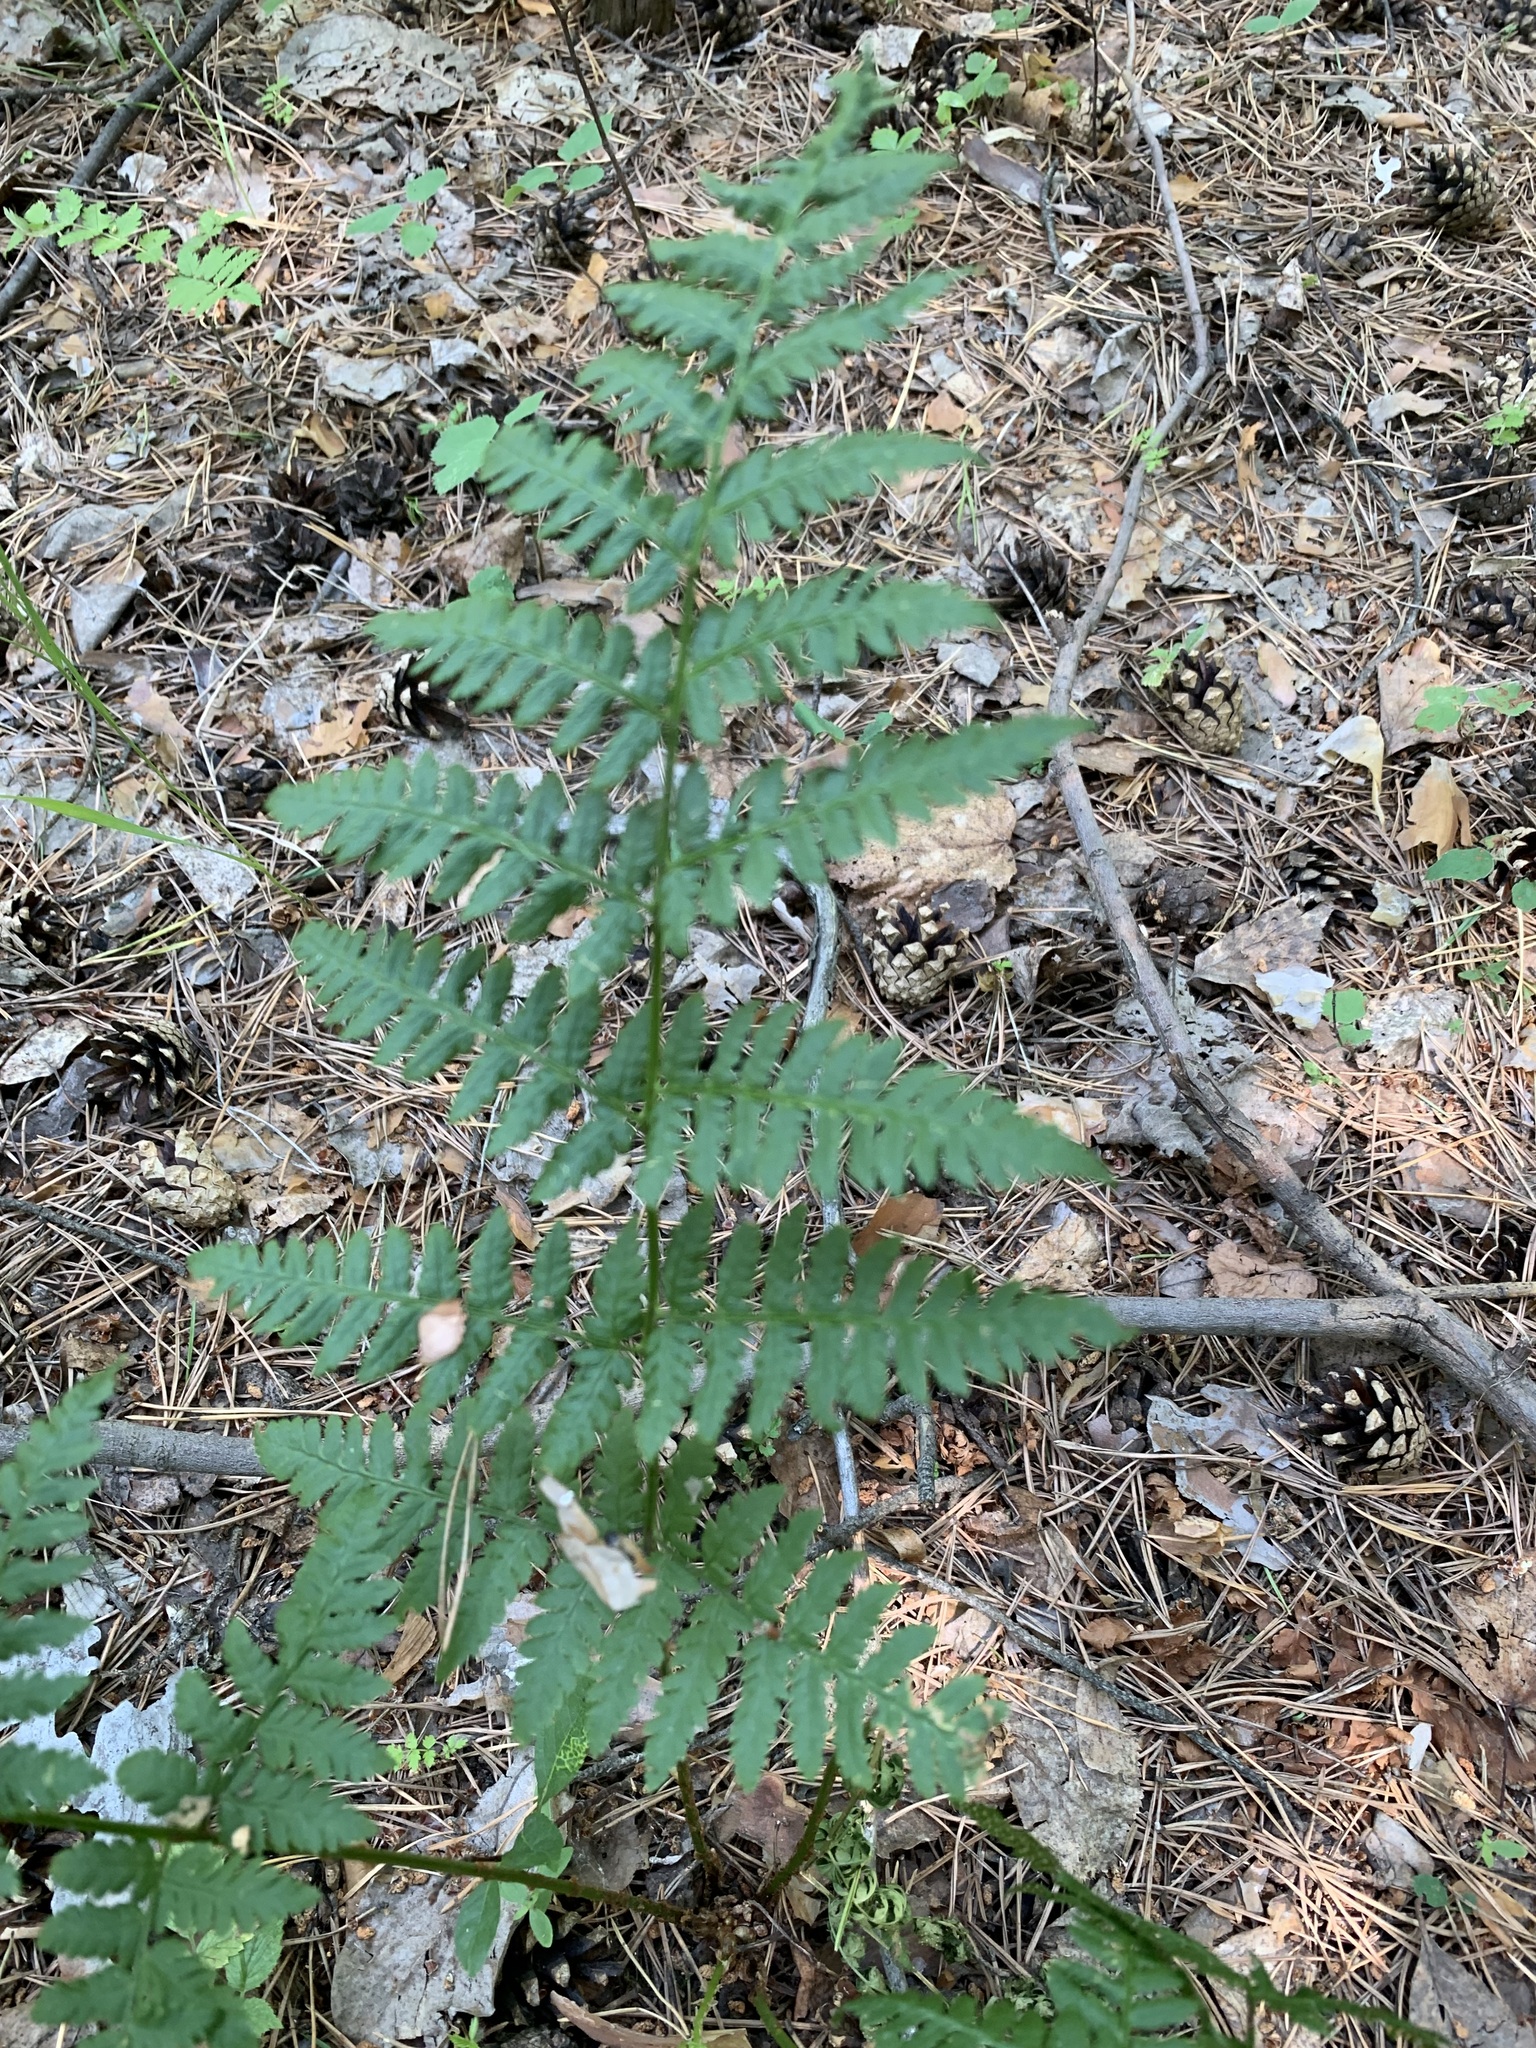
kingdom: Plantae
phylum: Tracheophyta
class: Polypodiopsida
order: Polypodiales
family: Dryopteridaceae
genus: Dryopteris
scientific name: Dryopteris carthusiana
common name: Narrow buckler-fern
